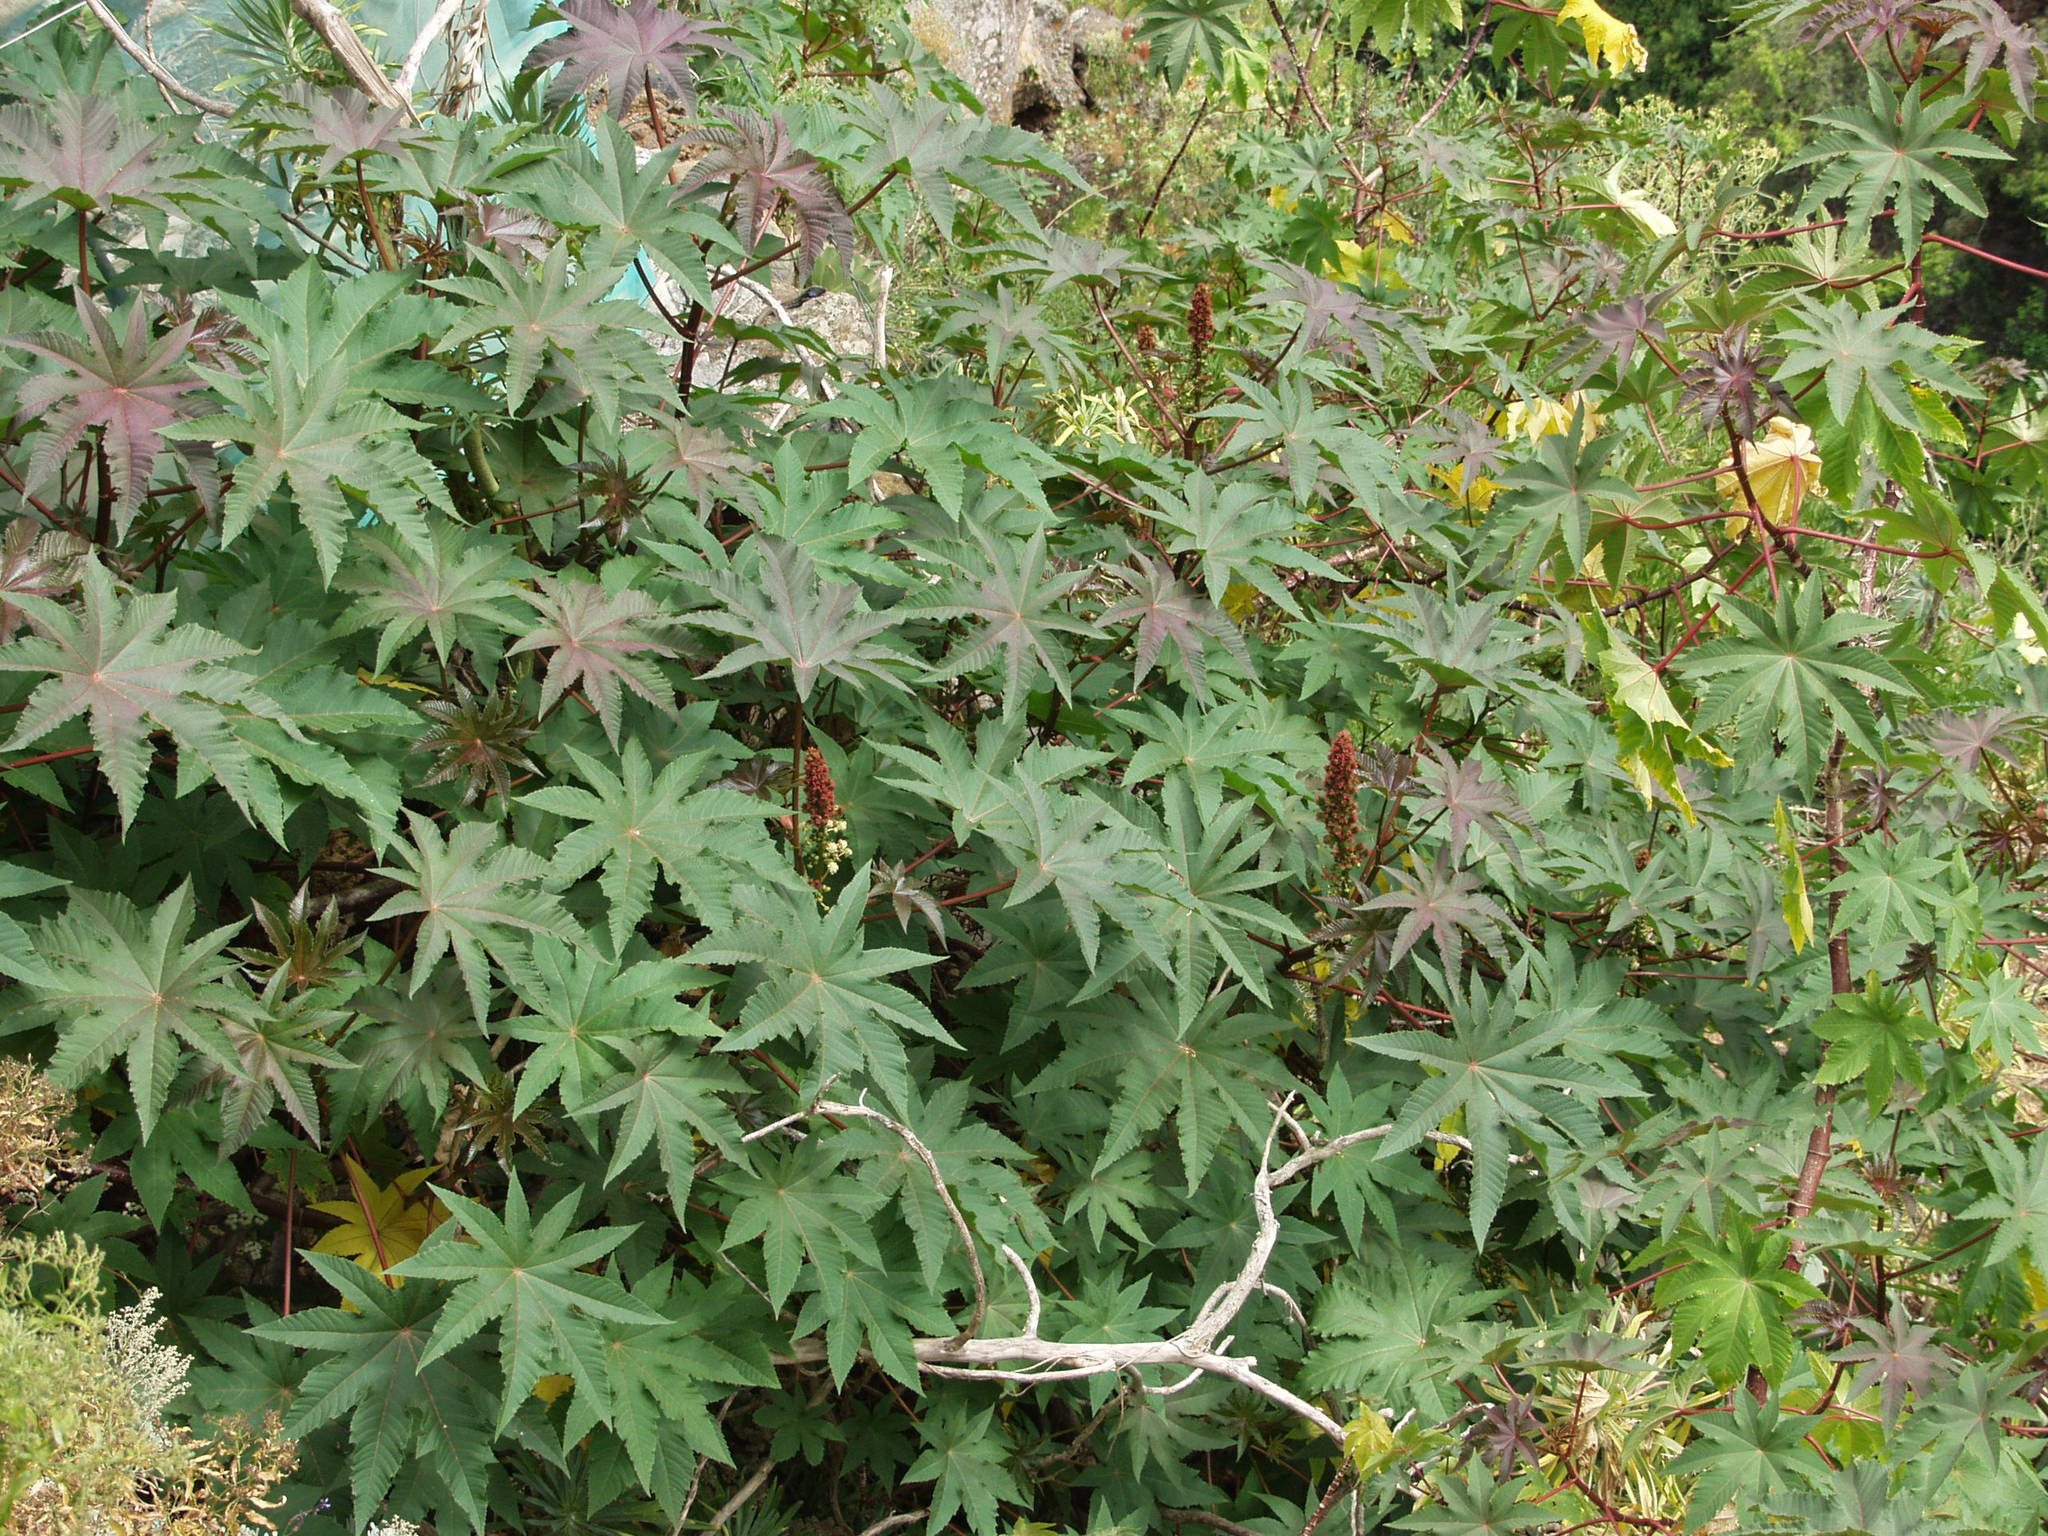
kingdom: Plantae
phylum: Tracheophyta
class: Magnoliopsida
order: Malpighiales
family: Euphorbiaceae
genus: Ricinus
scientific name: Ricinus communis
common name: Castor-oil-plant
